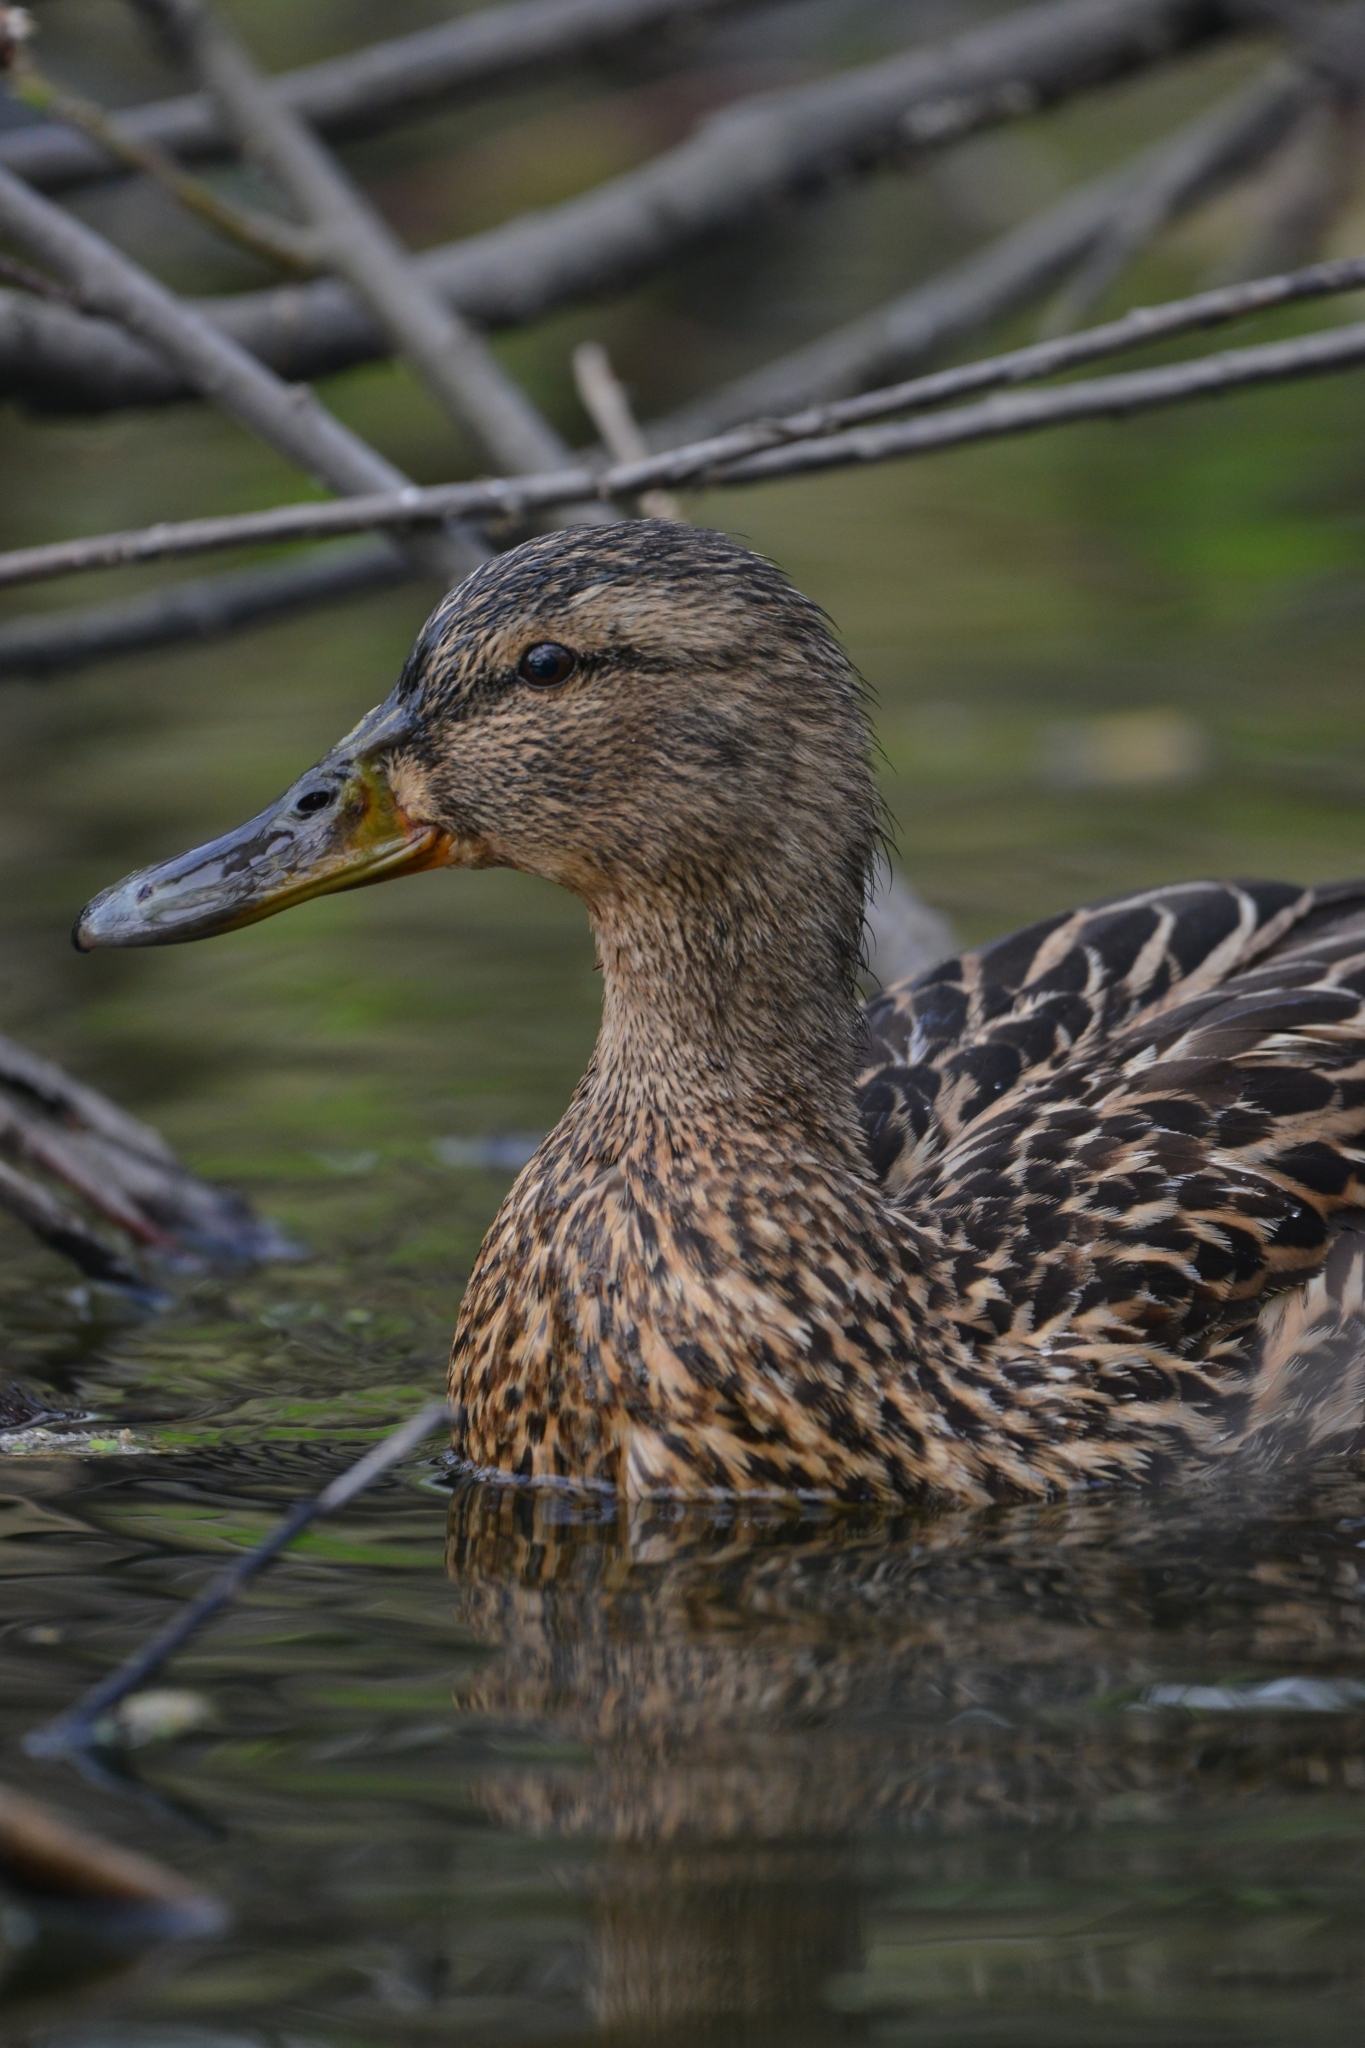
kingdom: Animalia
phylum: Chordata
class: Aves
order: Anseriformes
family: Anatidae
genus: Anas
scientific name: Anas platyrhynchos
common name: Mallard
